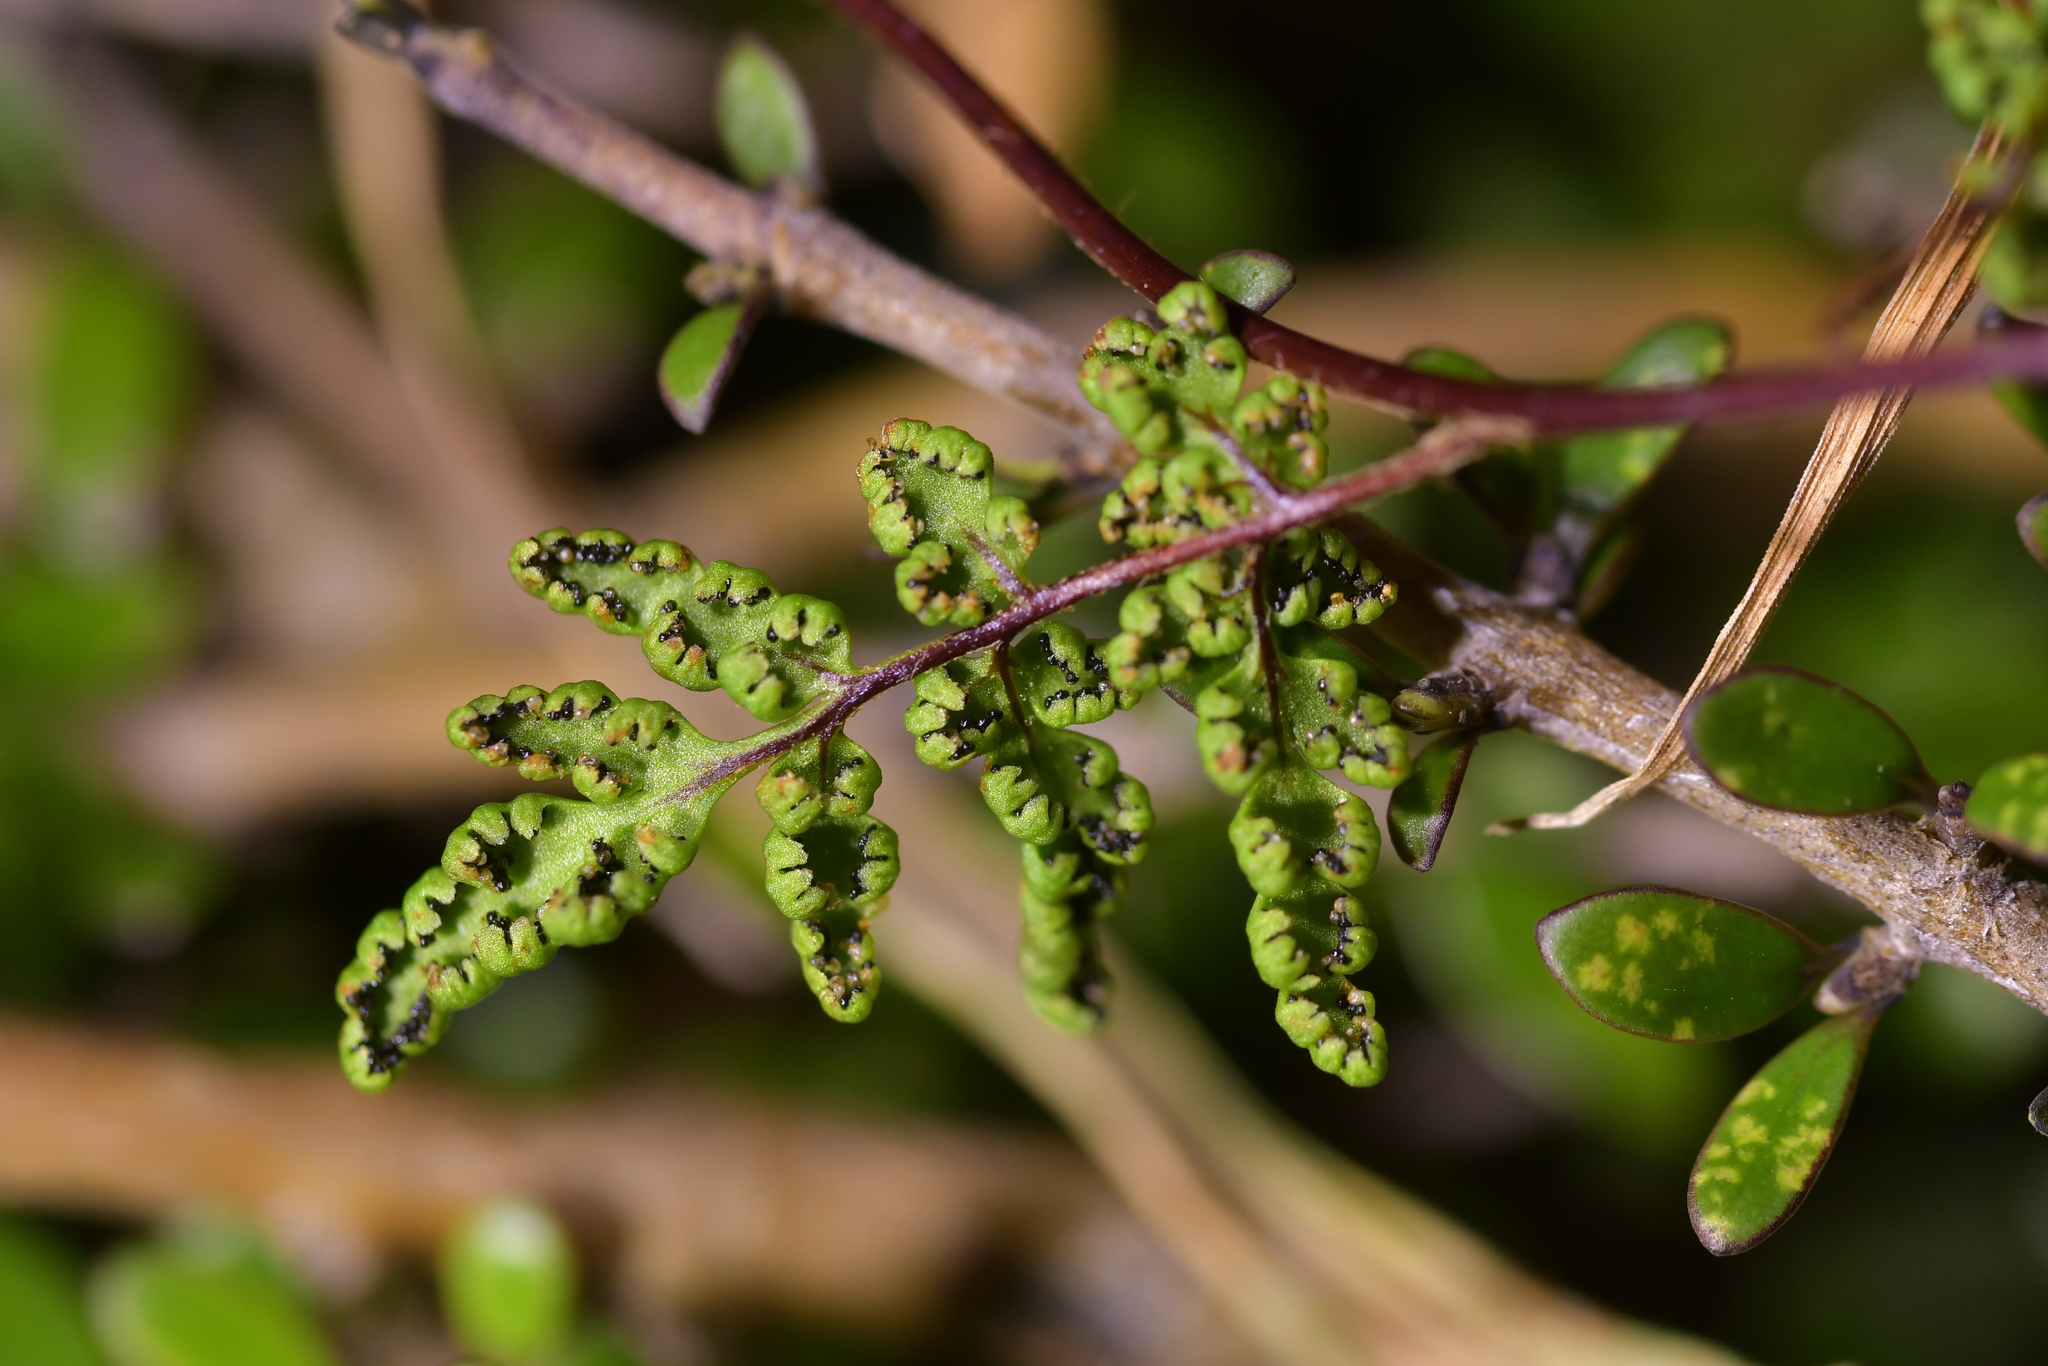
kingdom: Plantae
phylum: Tracheophyta
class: Polypodiopsida
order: Polypodiales
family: Pteridaceae
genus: Cheilanthes
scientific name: Cheilanthes sieberi
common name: Mulga fern
